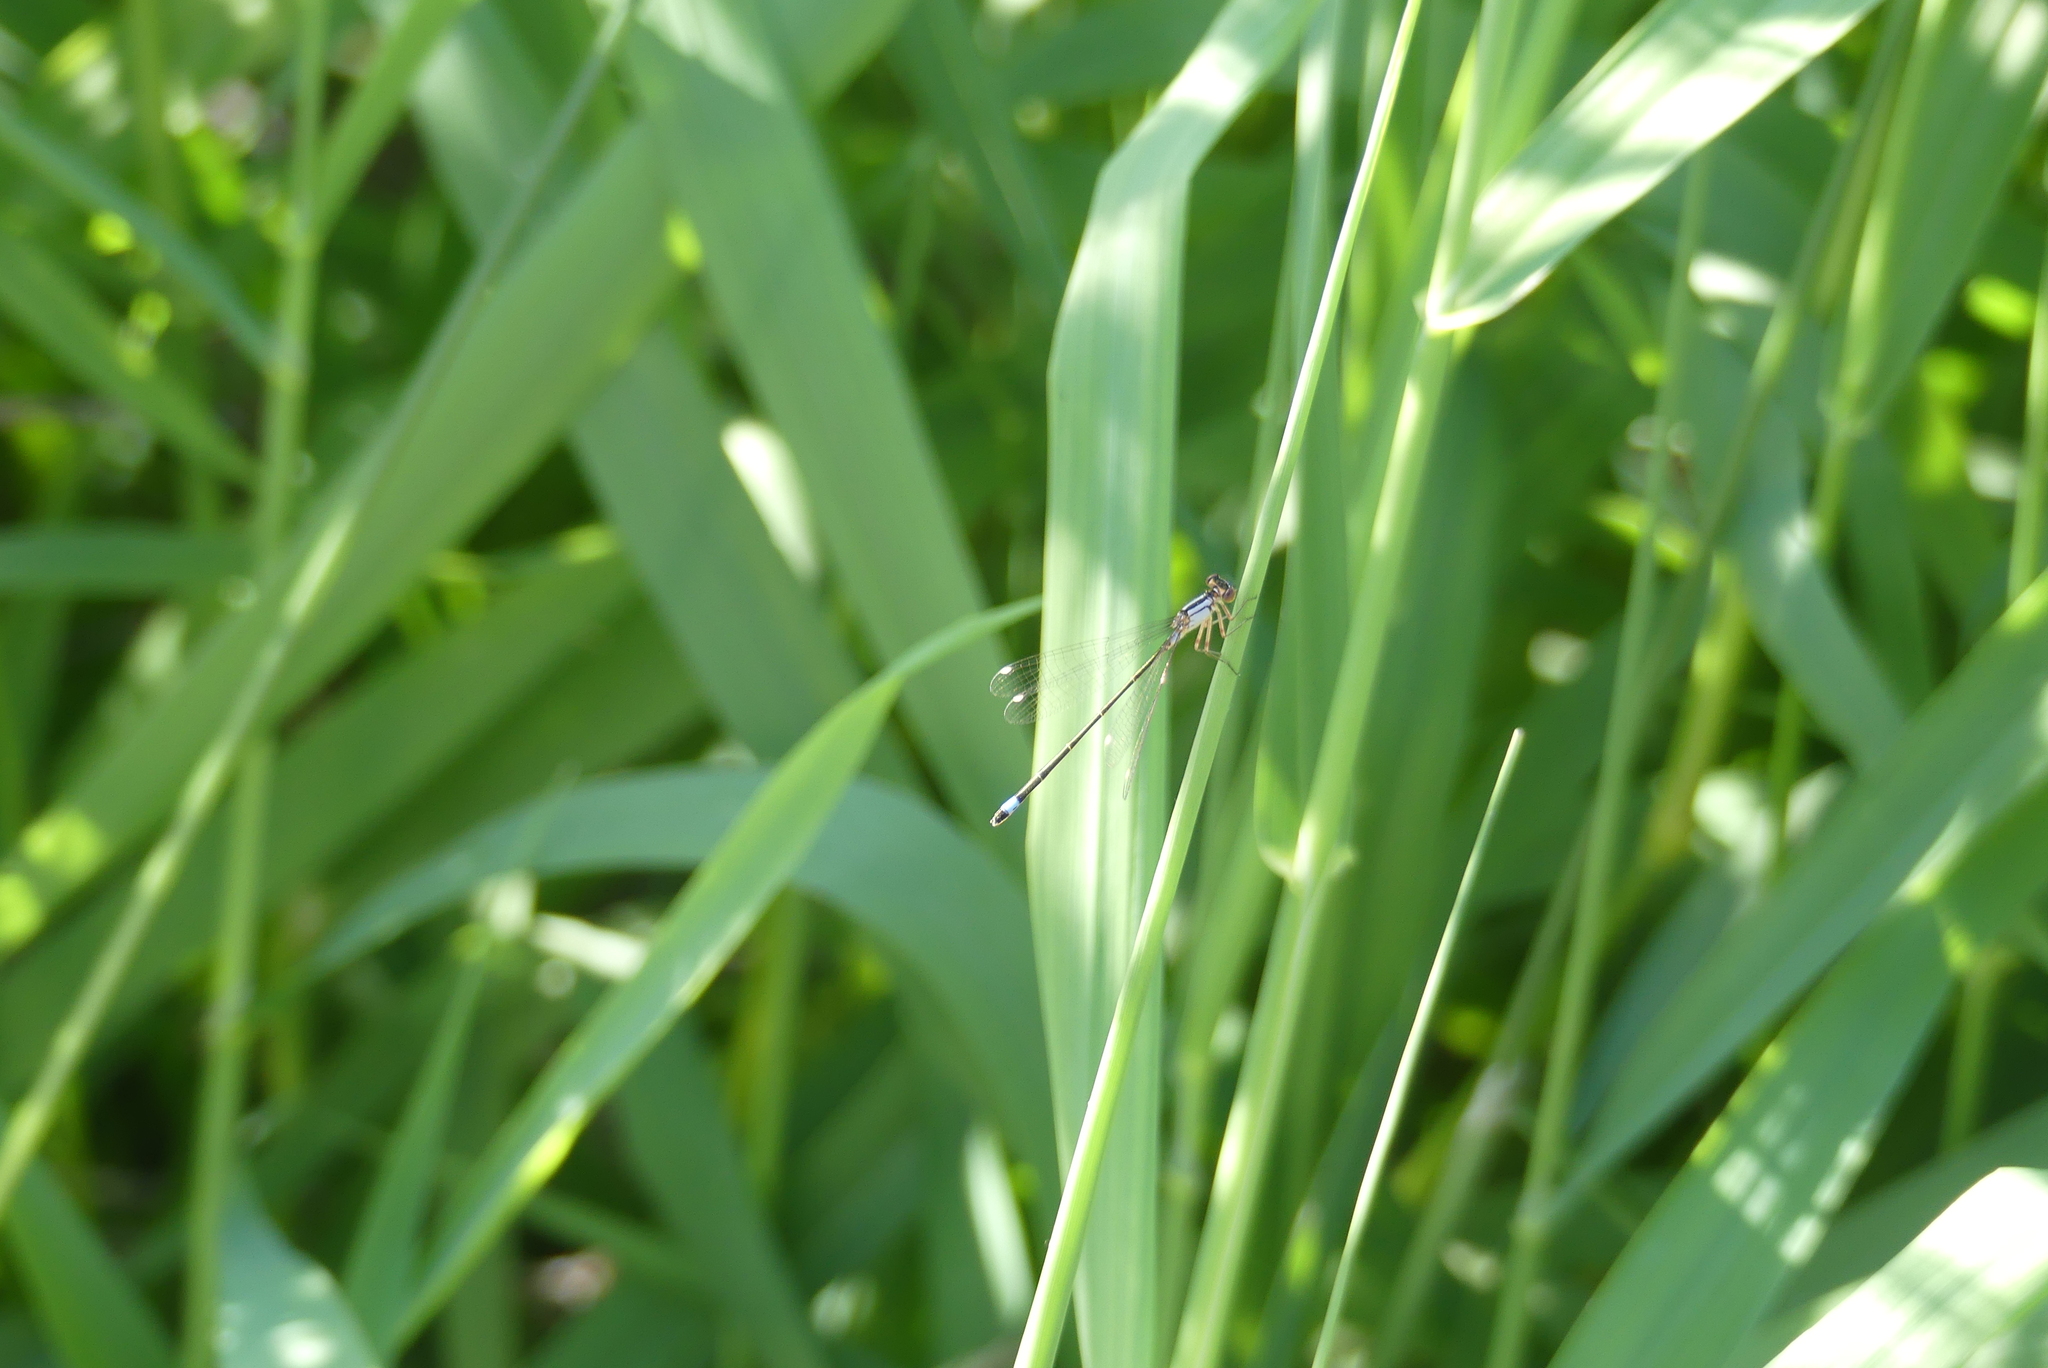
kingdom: Animalia
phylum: Arthropoda
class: Insecta
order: Odonata
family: Coenagrionidae
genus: Ischnura
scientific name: Ischnura cervula
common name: Pacific forktail
